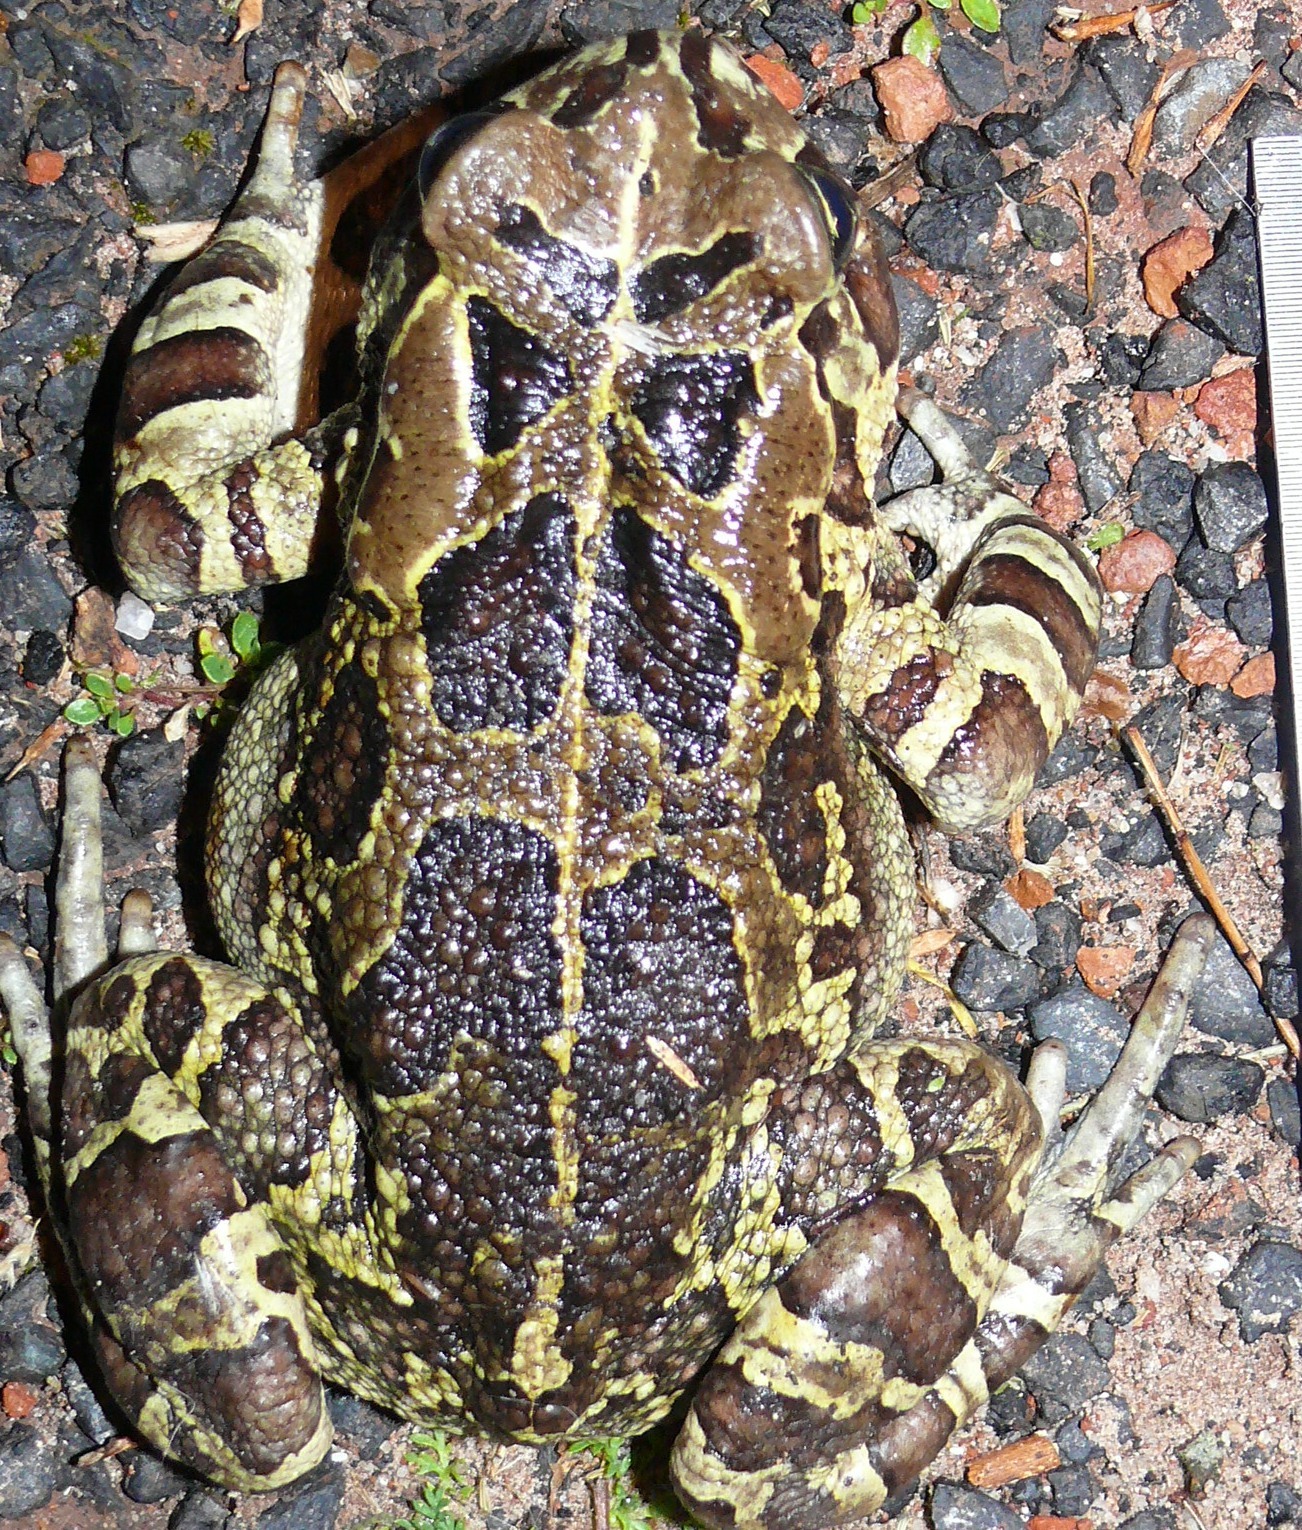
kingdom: Animalia
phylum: Chordata
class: Amphibia
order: Anura
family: Bufonidae
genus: Sclerophrys
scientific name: Sclerophrys pantherina
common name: Panther toad
